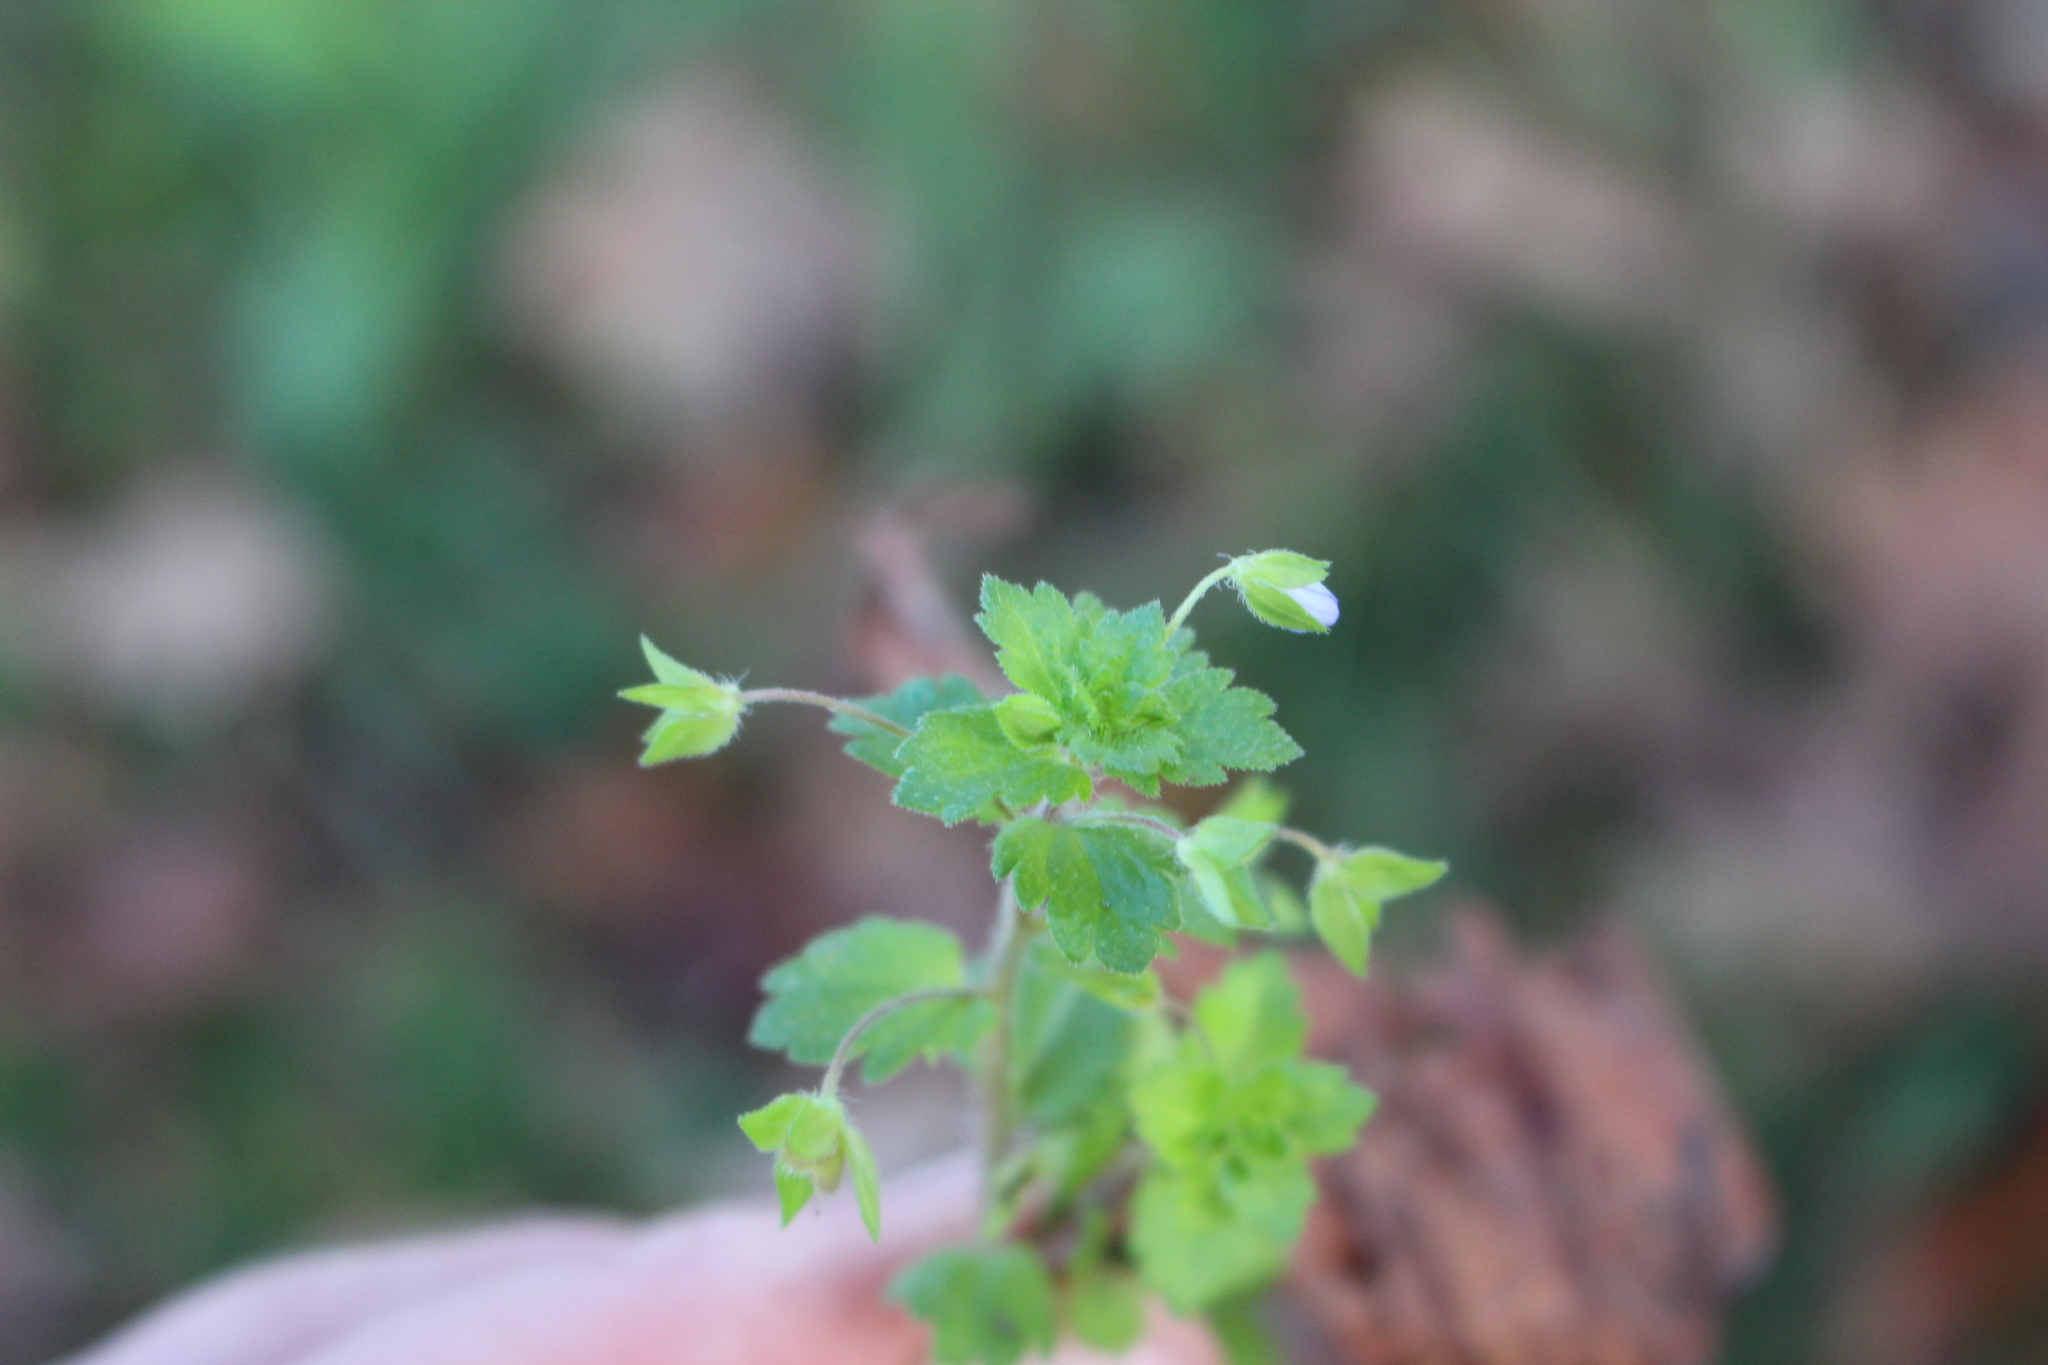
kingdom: Plantae
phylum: Tracheophyta
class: Magnoliopsida
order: Lamiales
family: Plantaginaceae
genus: Veronica
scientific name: Veronica persica
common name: Common field-speedwell
